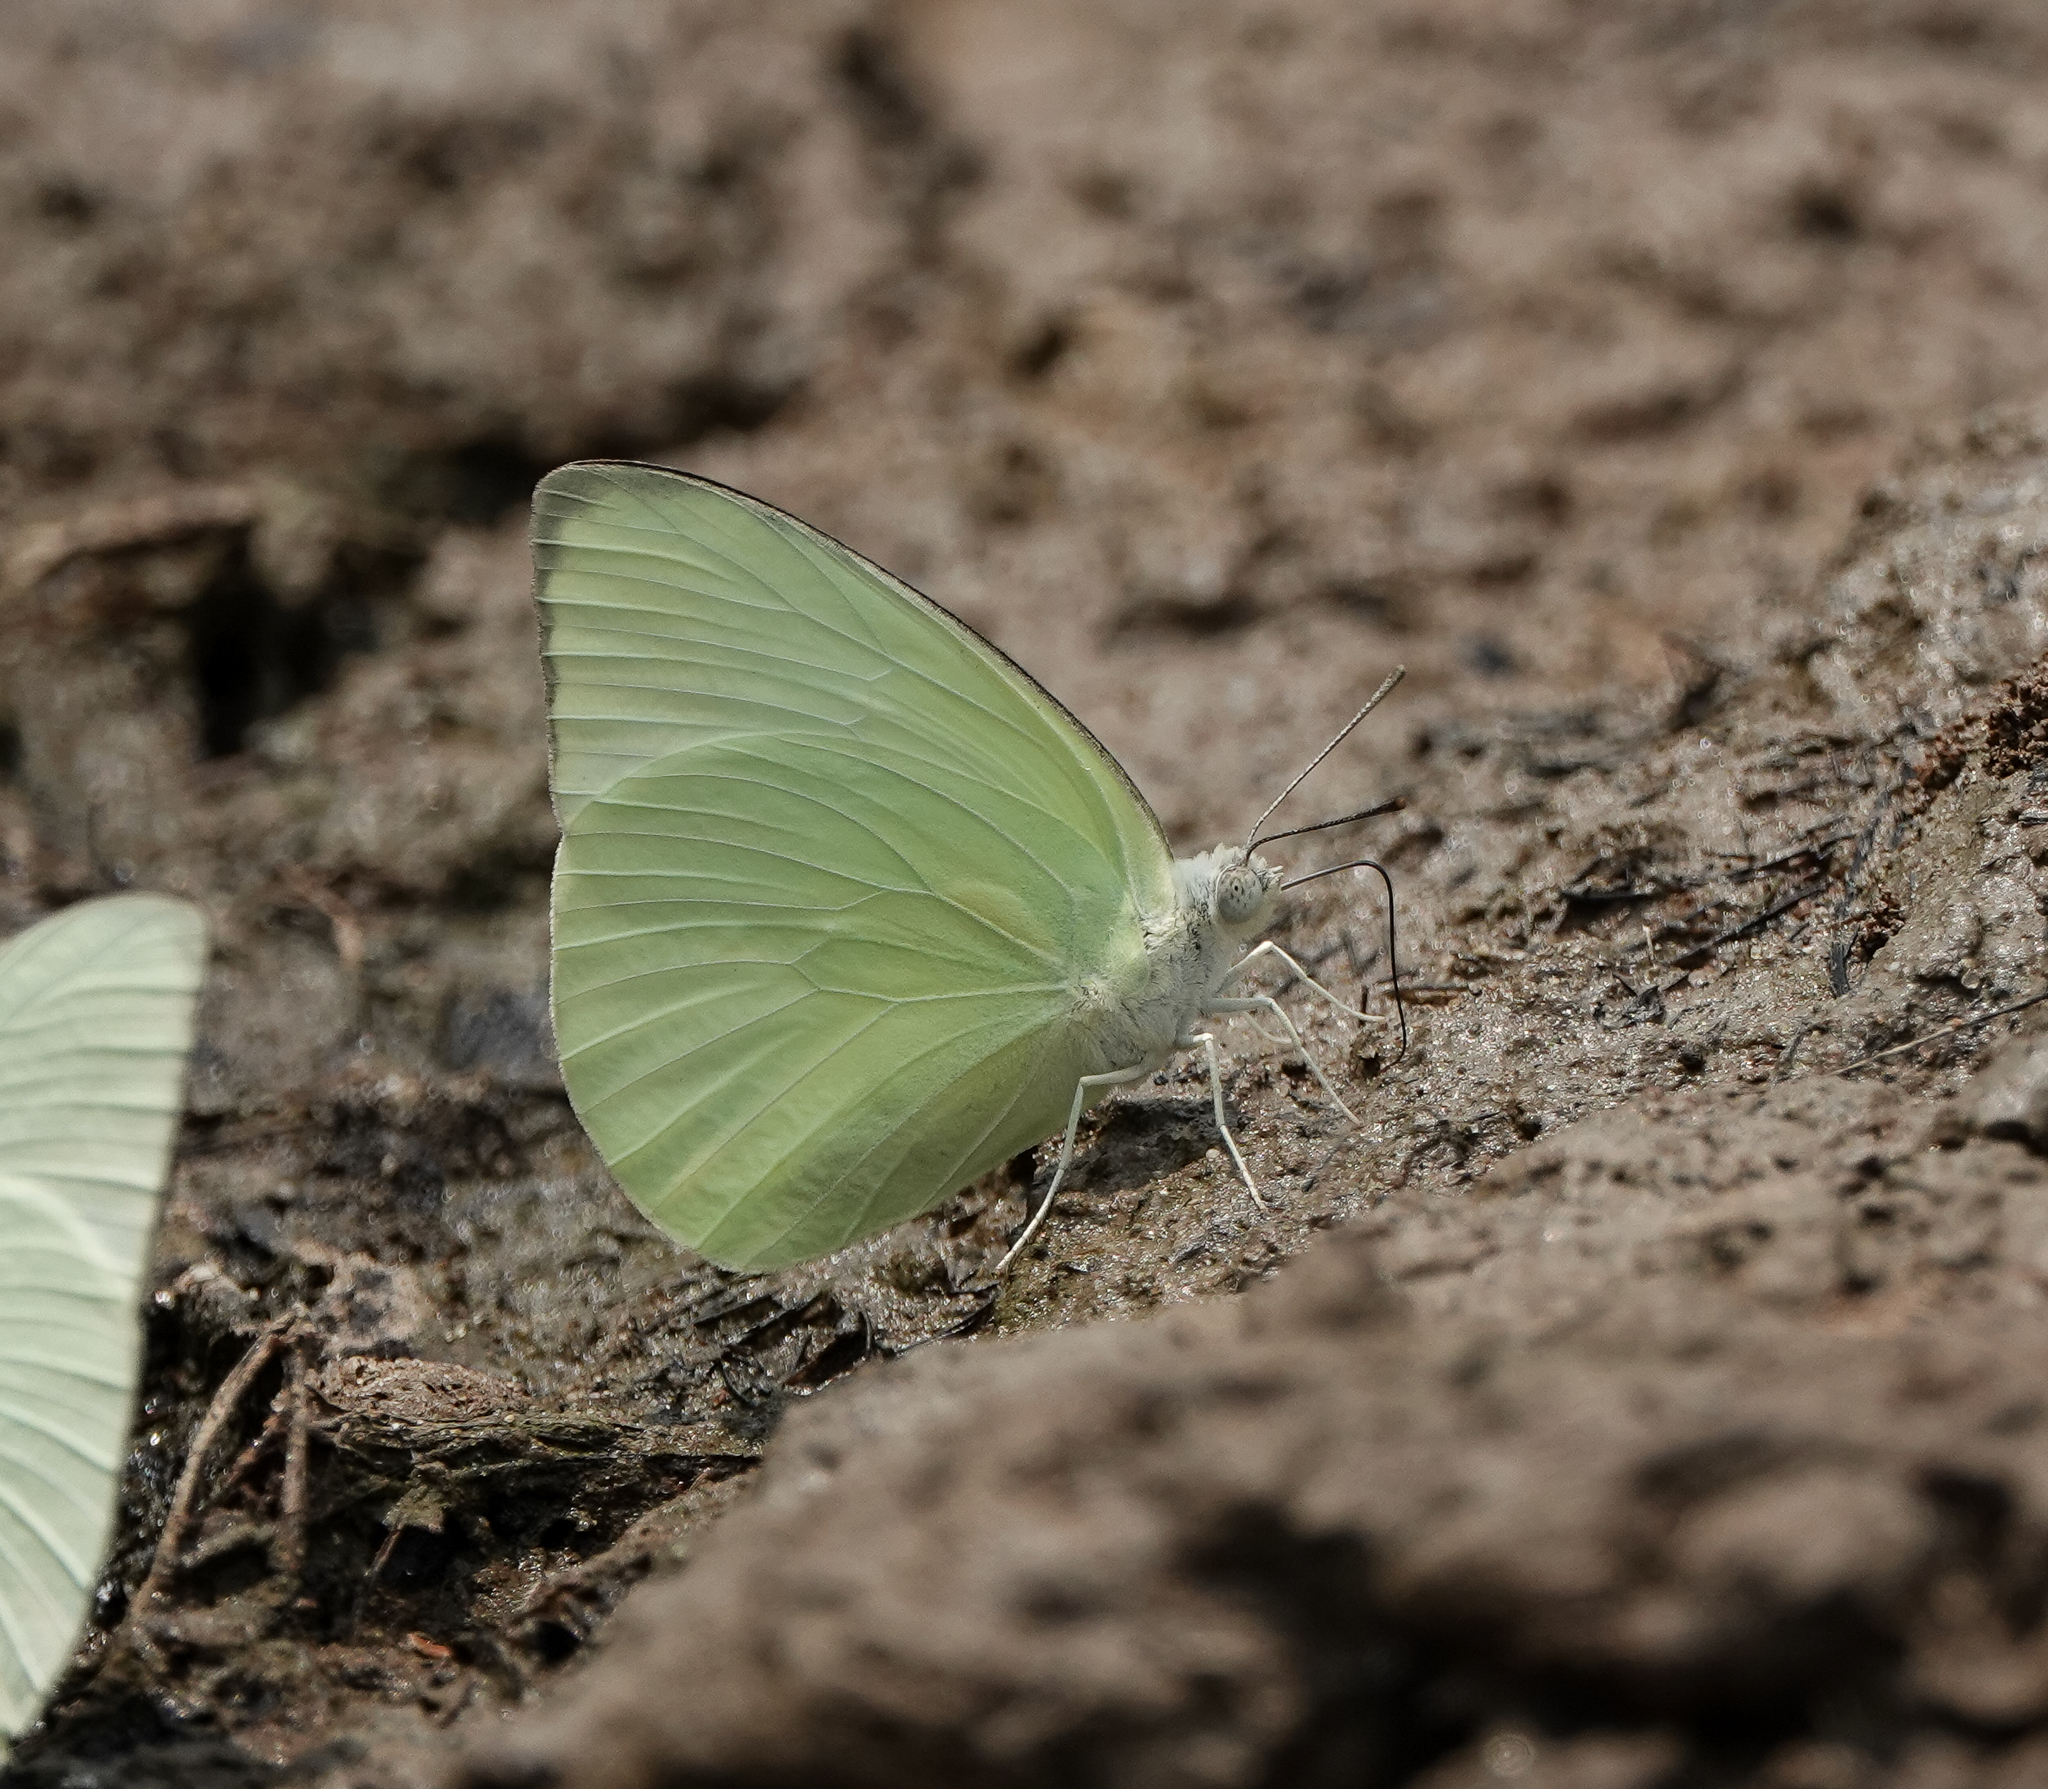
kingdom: Animalia
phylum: Arthropoda
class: Insecta
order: Lepidoptera
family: Pieridae
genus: Catopsilia
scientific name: Catopsilia pomona
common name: Common emigrant
